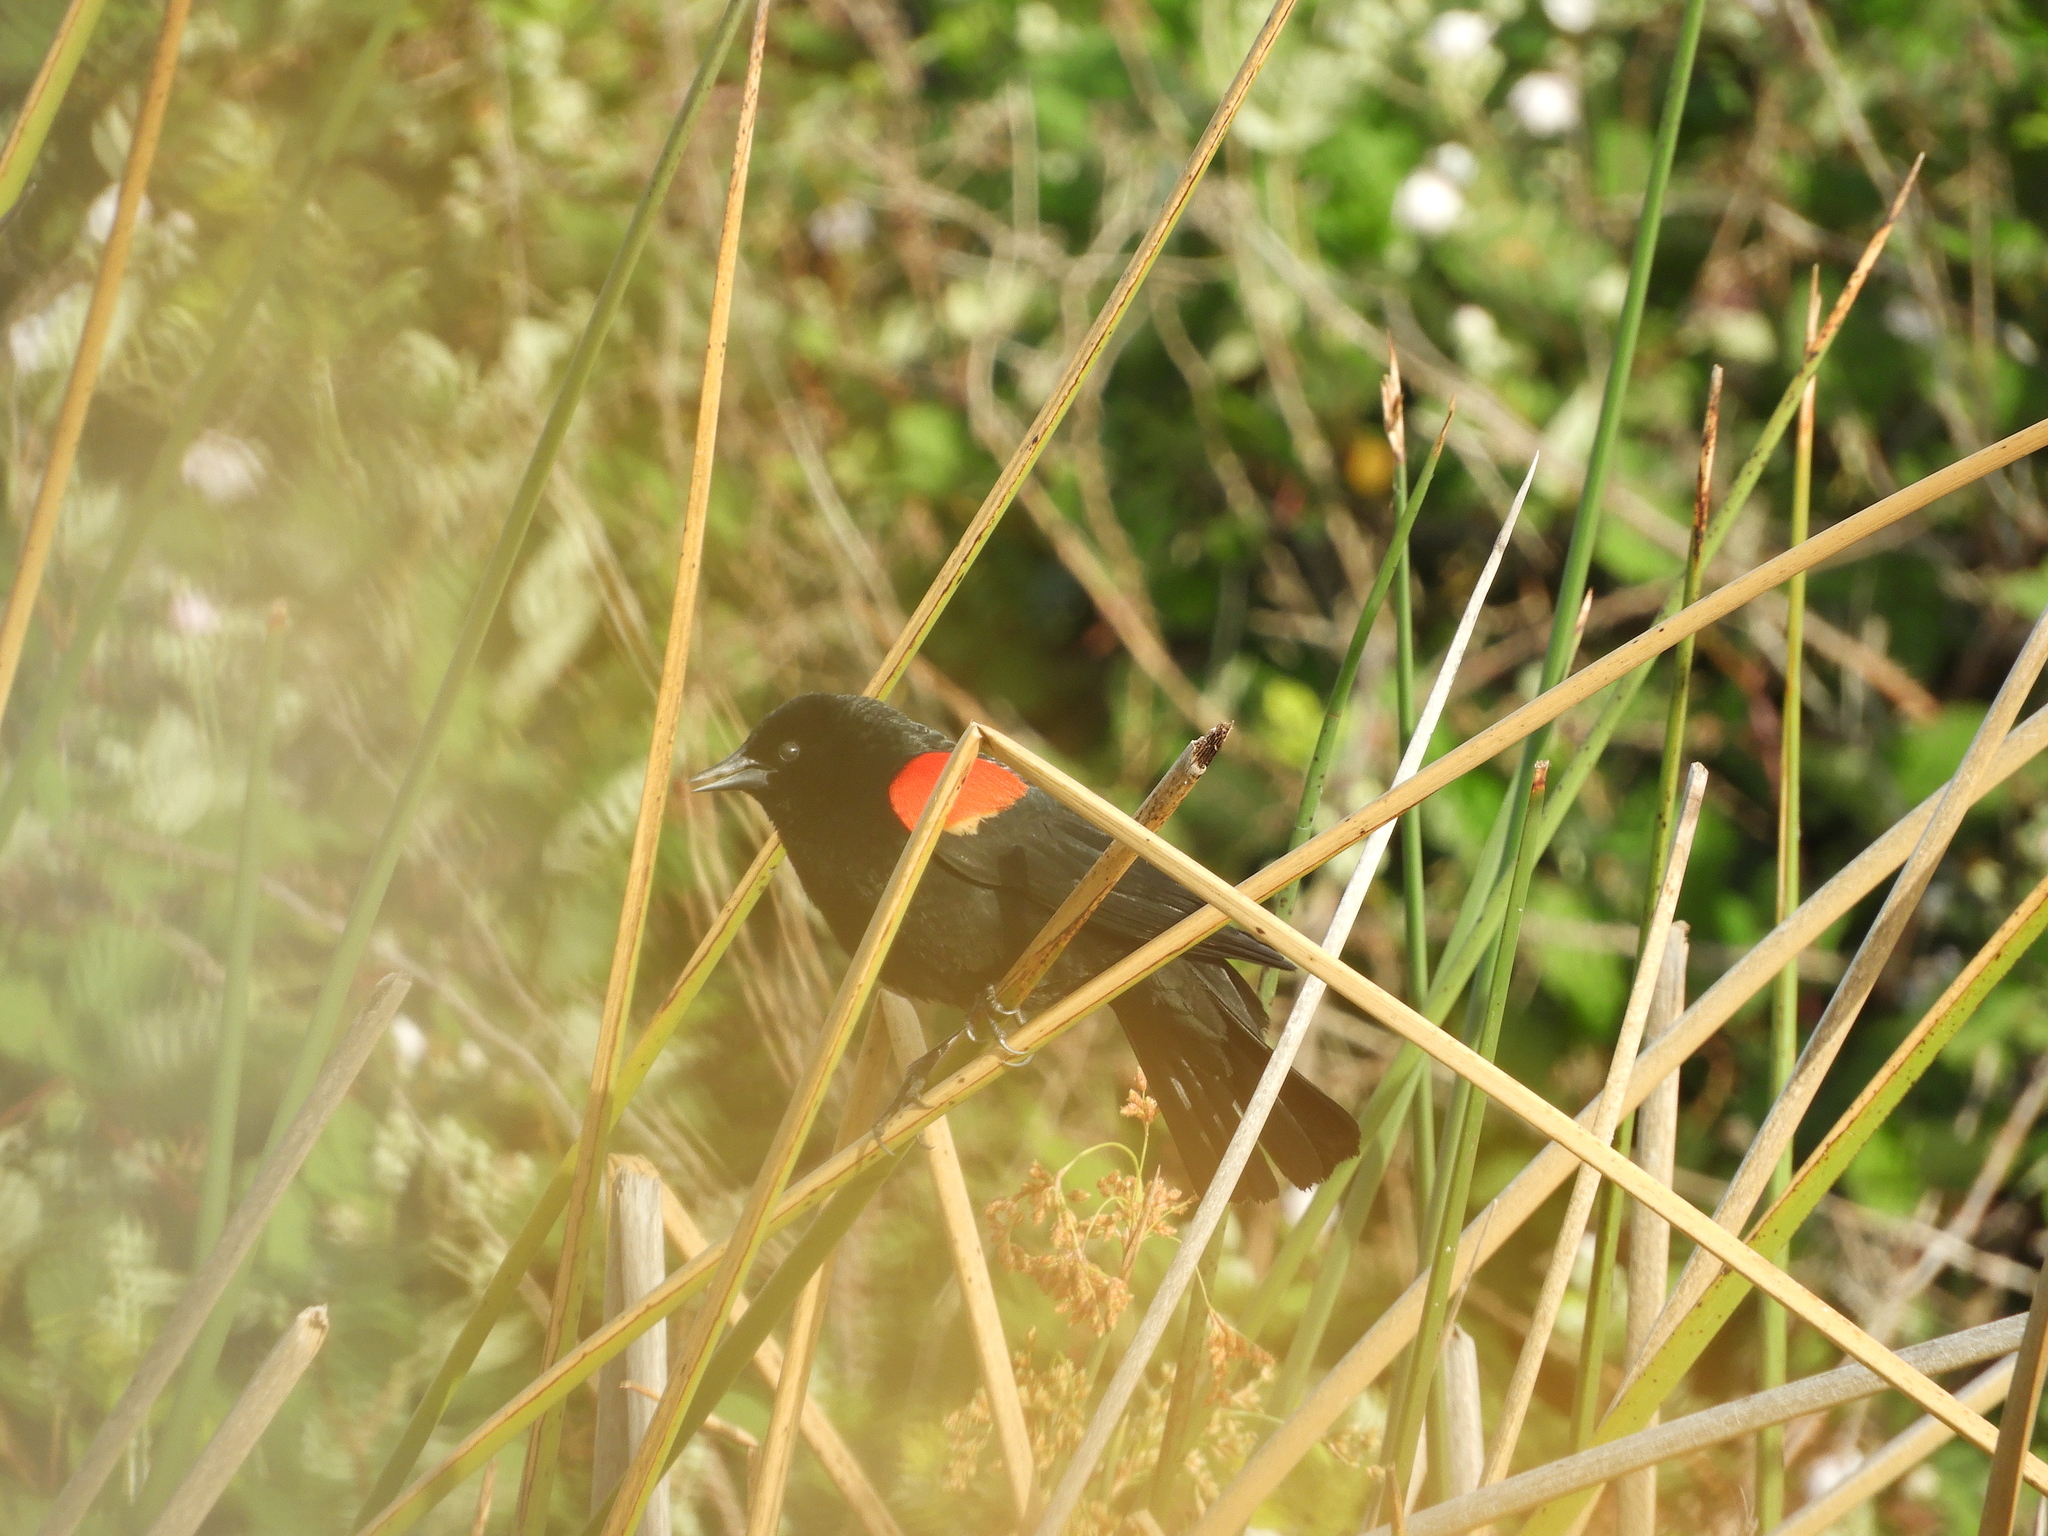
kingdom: Animalia
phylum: Chordata
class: Aves
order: Passeriformes
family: Icteridae
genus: Agelaius
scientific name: Agelaius phoeniceus
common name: Red-winged blackbird
